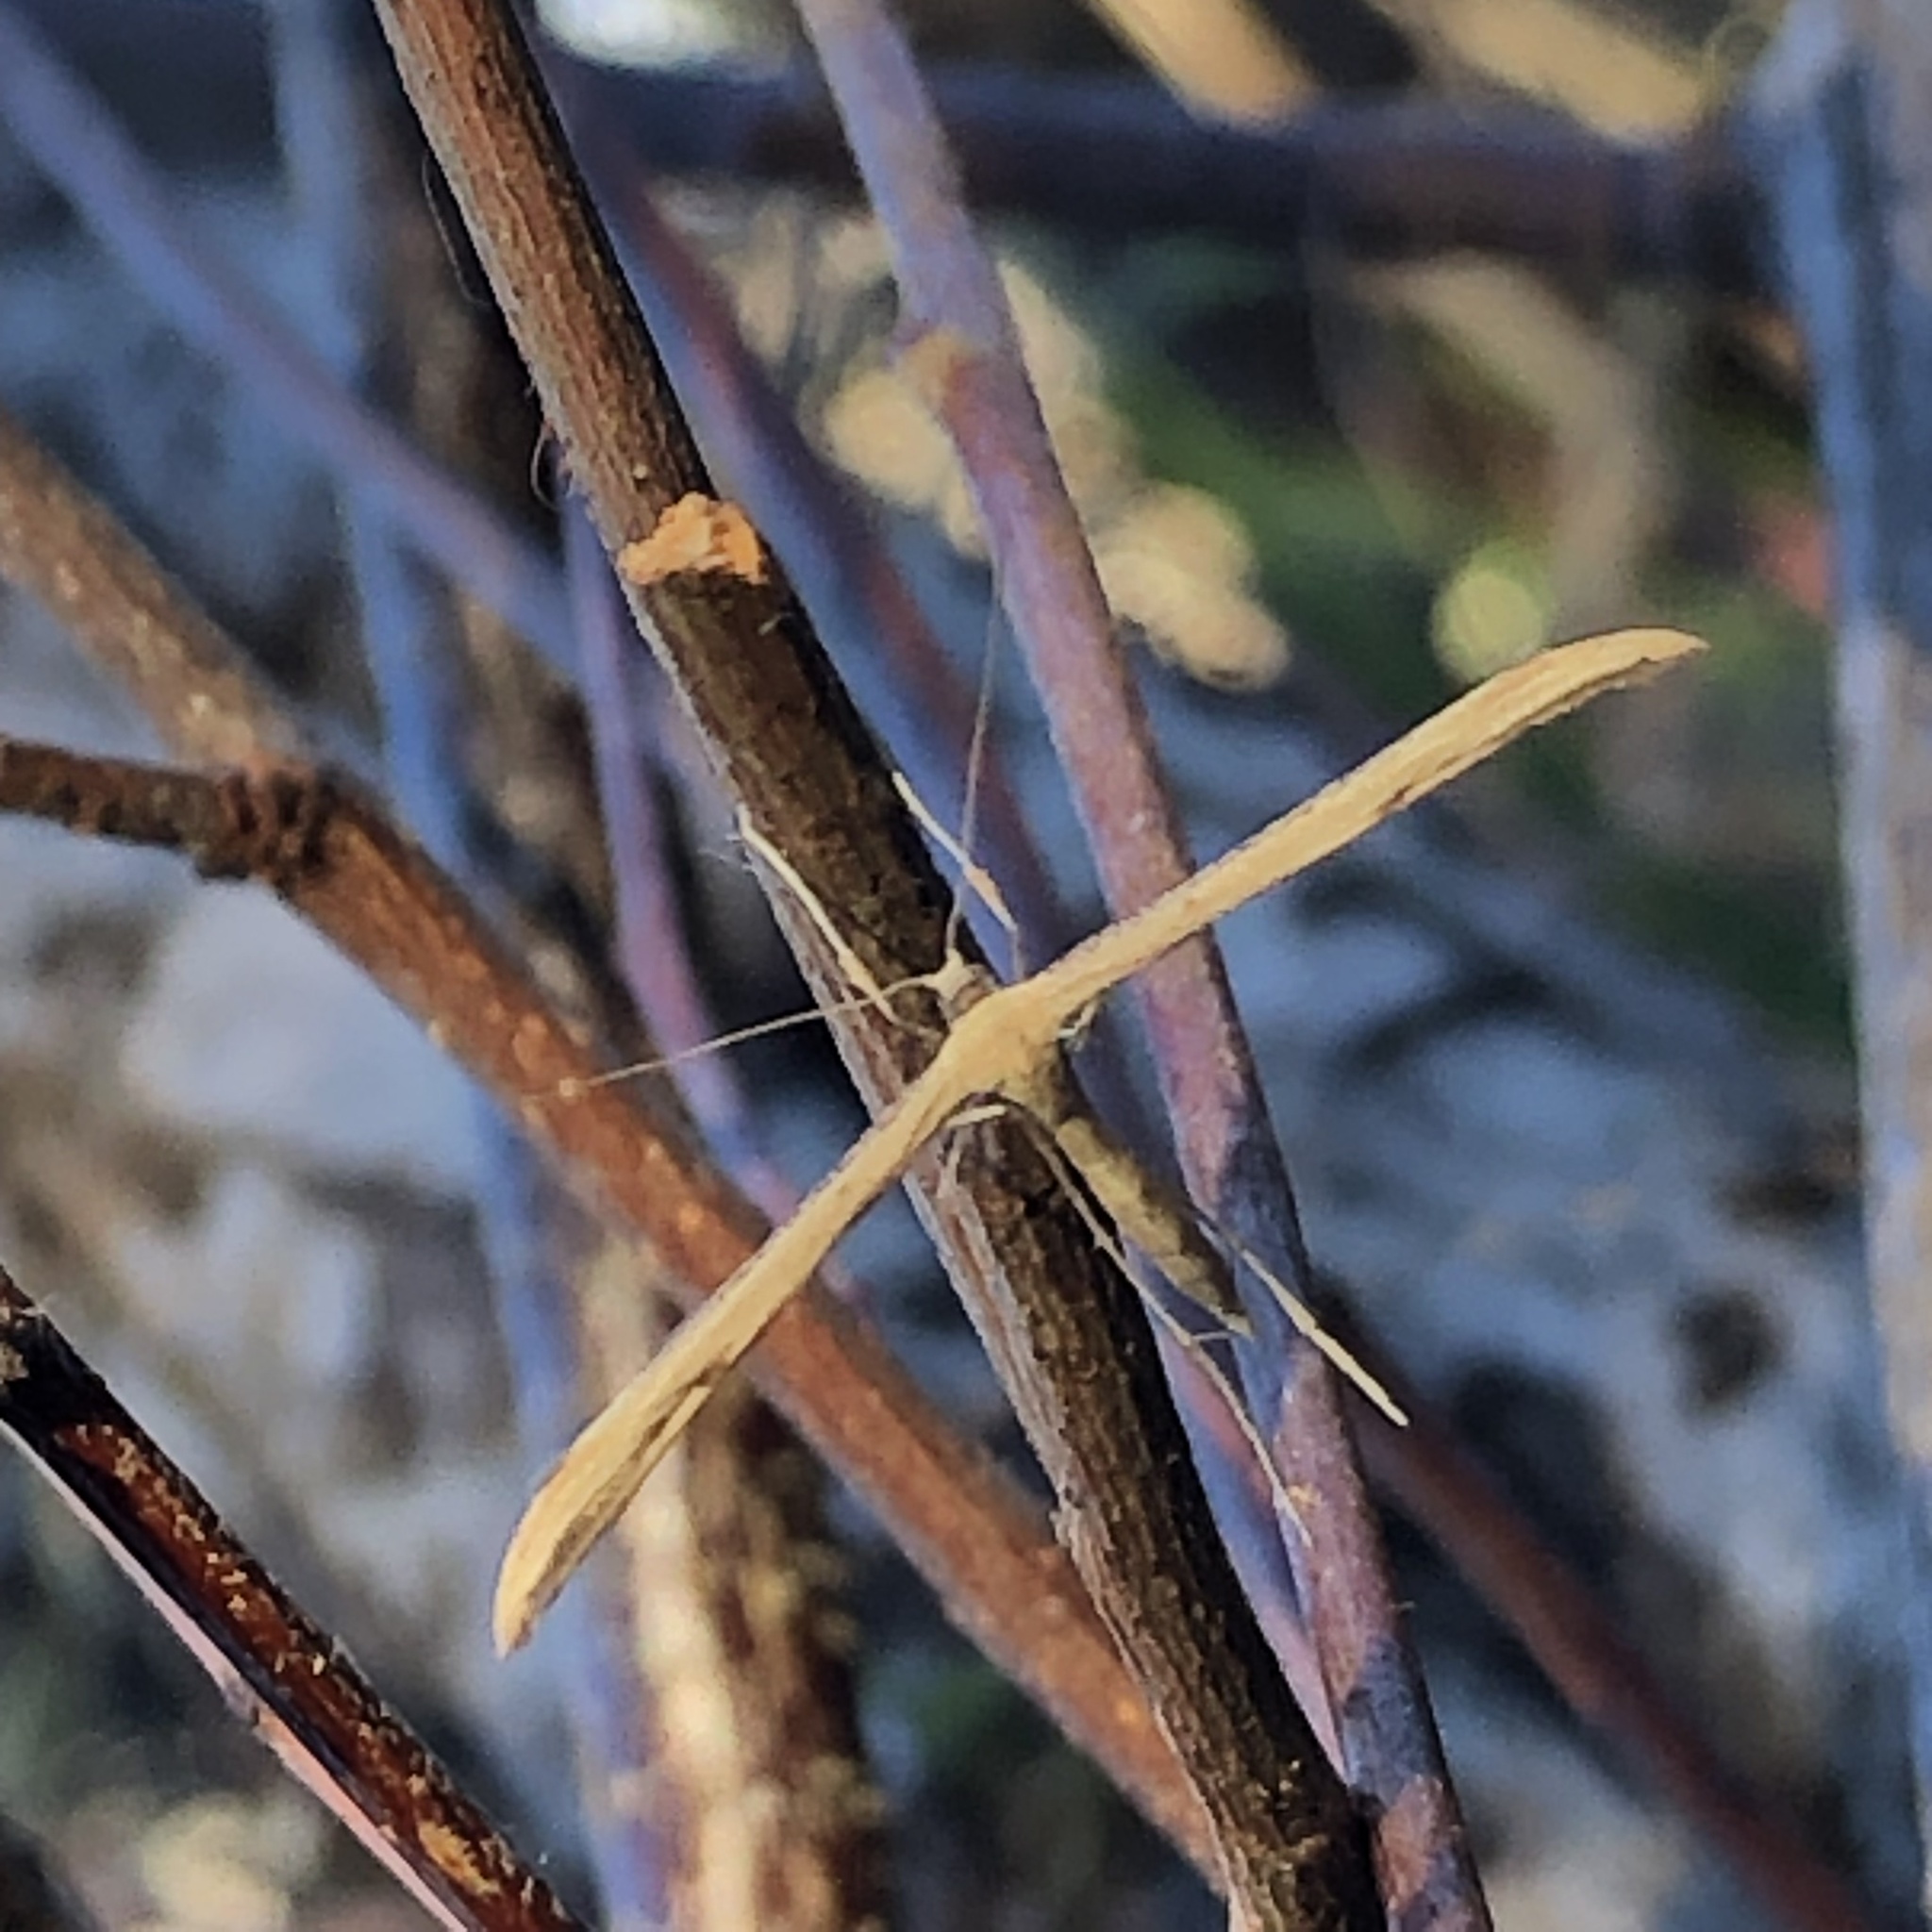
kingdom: Animalia
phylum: Arthropoda
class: Insecta
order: Lepidoptera
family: Pterophoridae
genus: Emmelina
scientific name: Emmelina monodactyla
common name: Common plume
